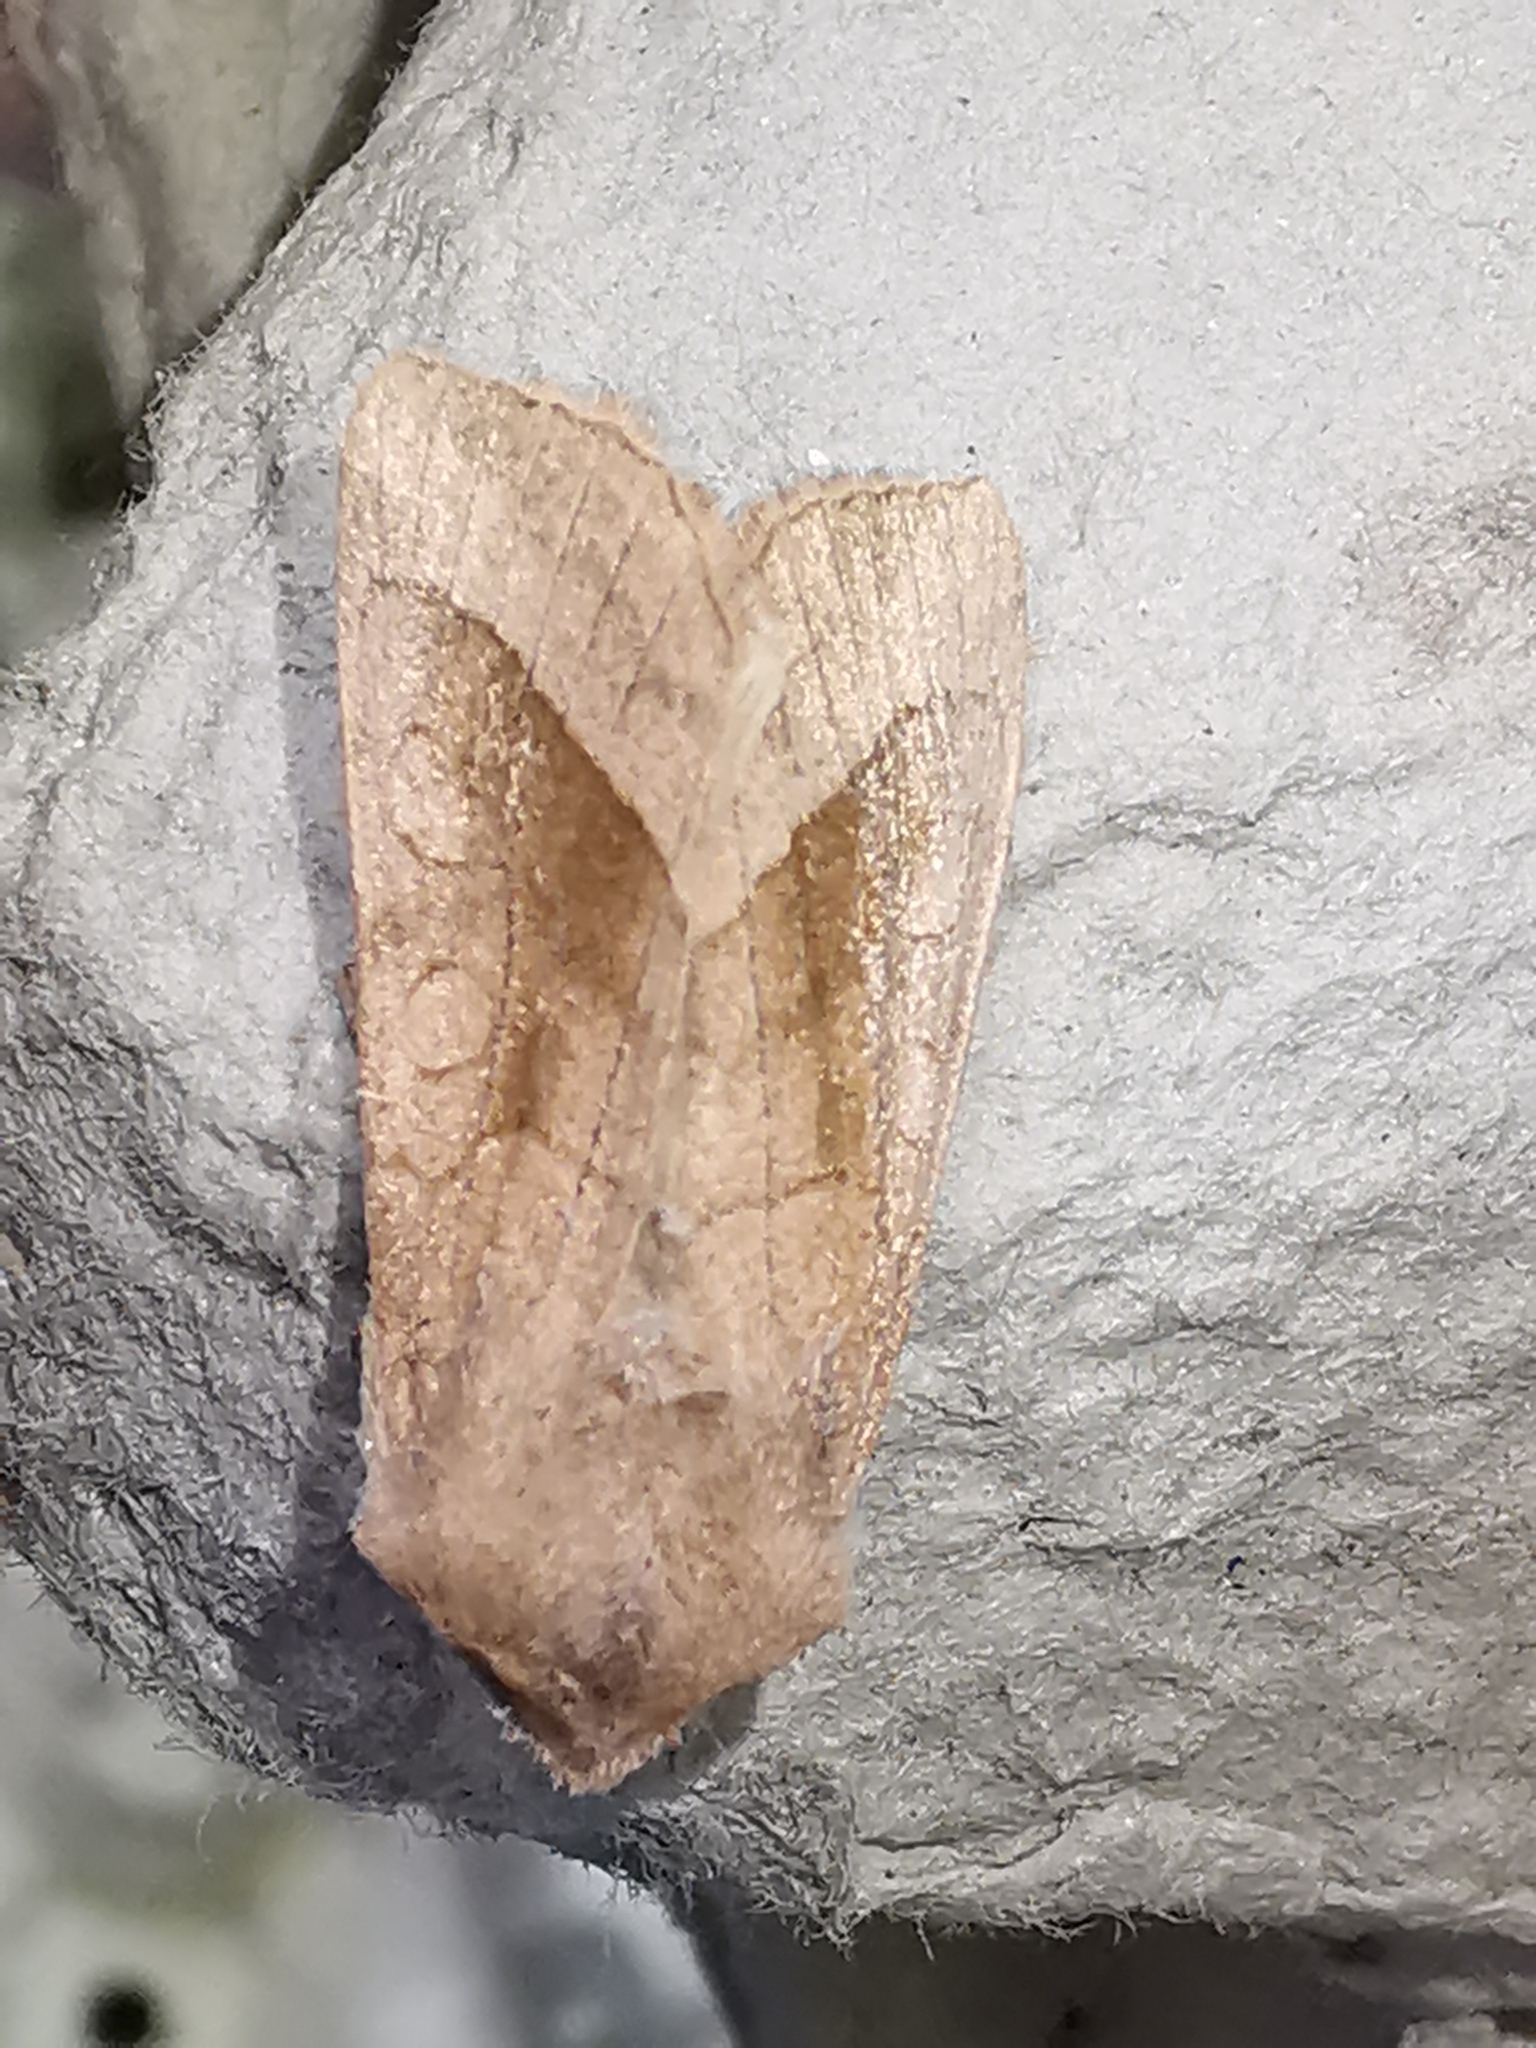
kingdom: Animalia
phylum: Arthropoda
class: Insecta
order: Lepidoptera
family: Noctuidae
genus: Hydraecia
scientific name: Hydraecia micacea
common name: Rosy rustic
